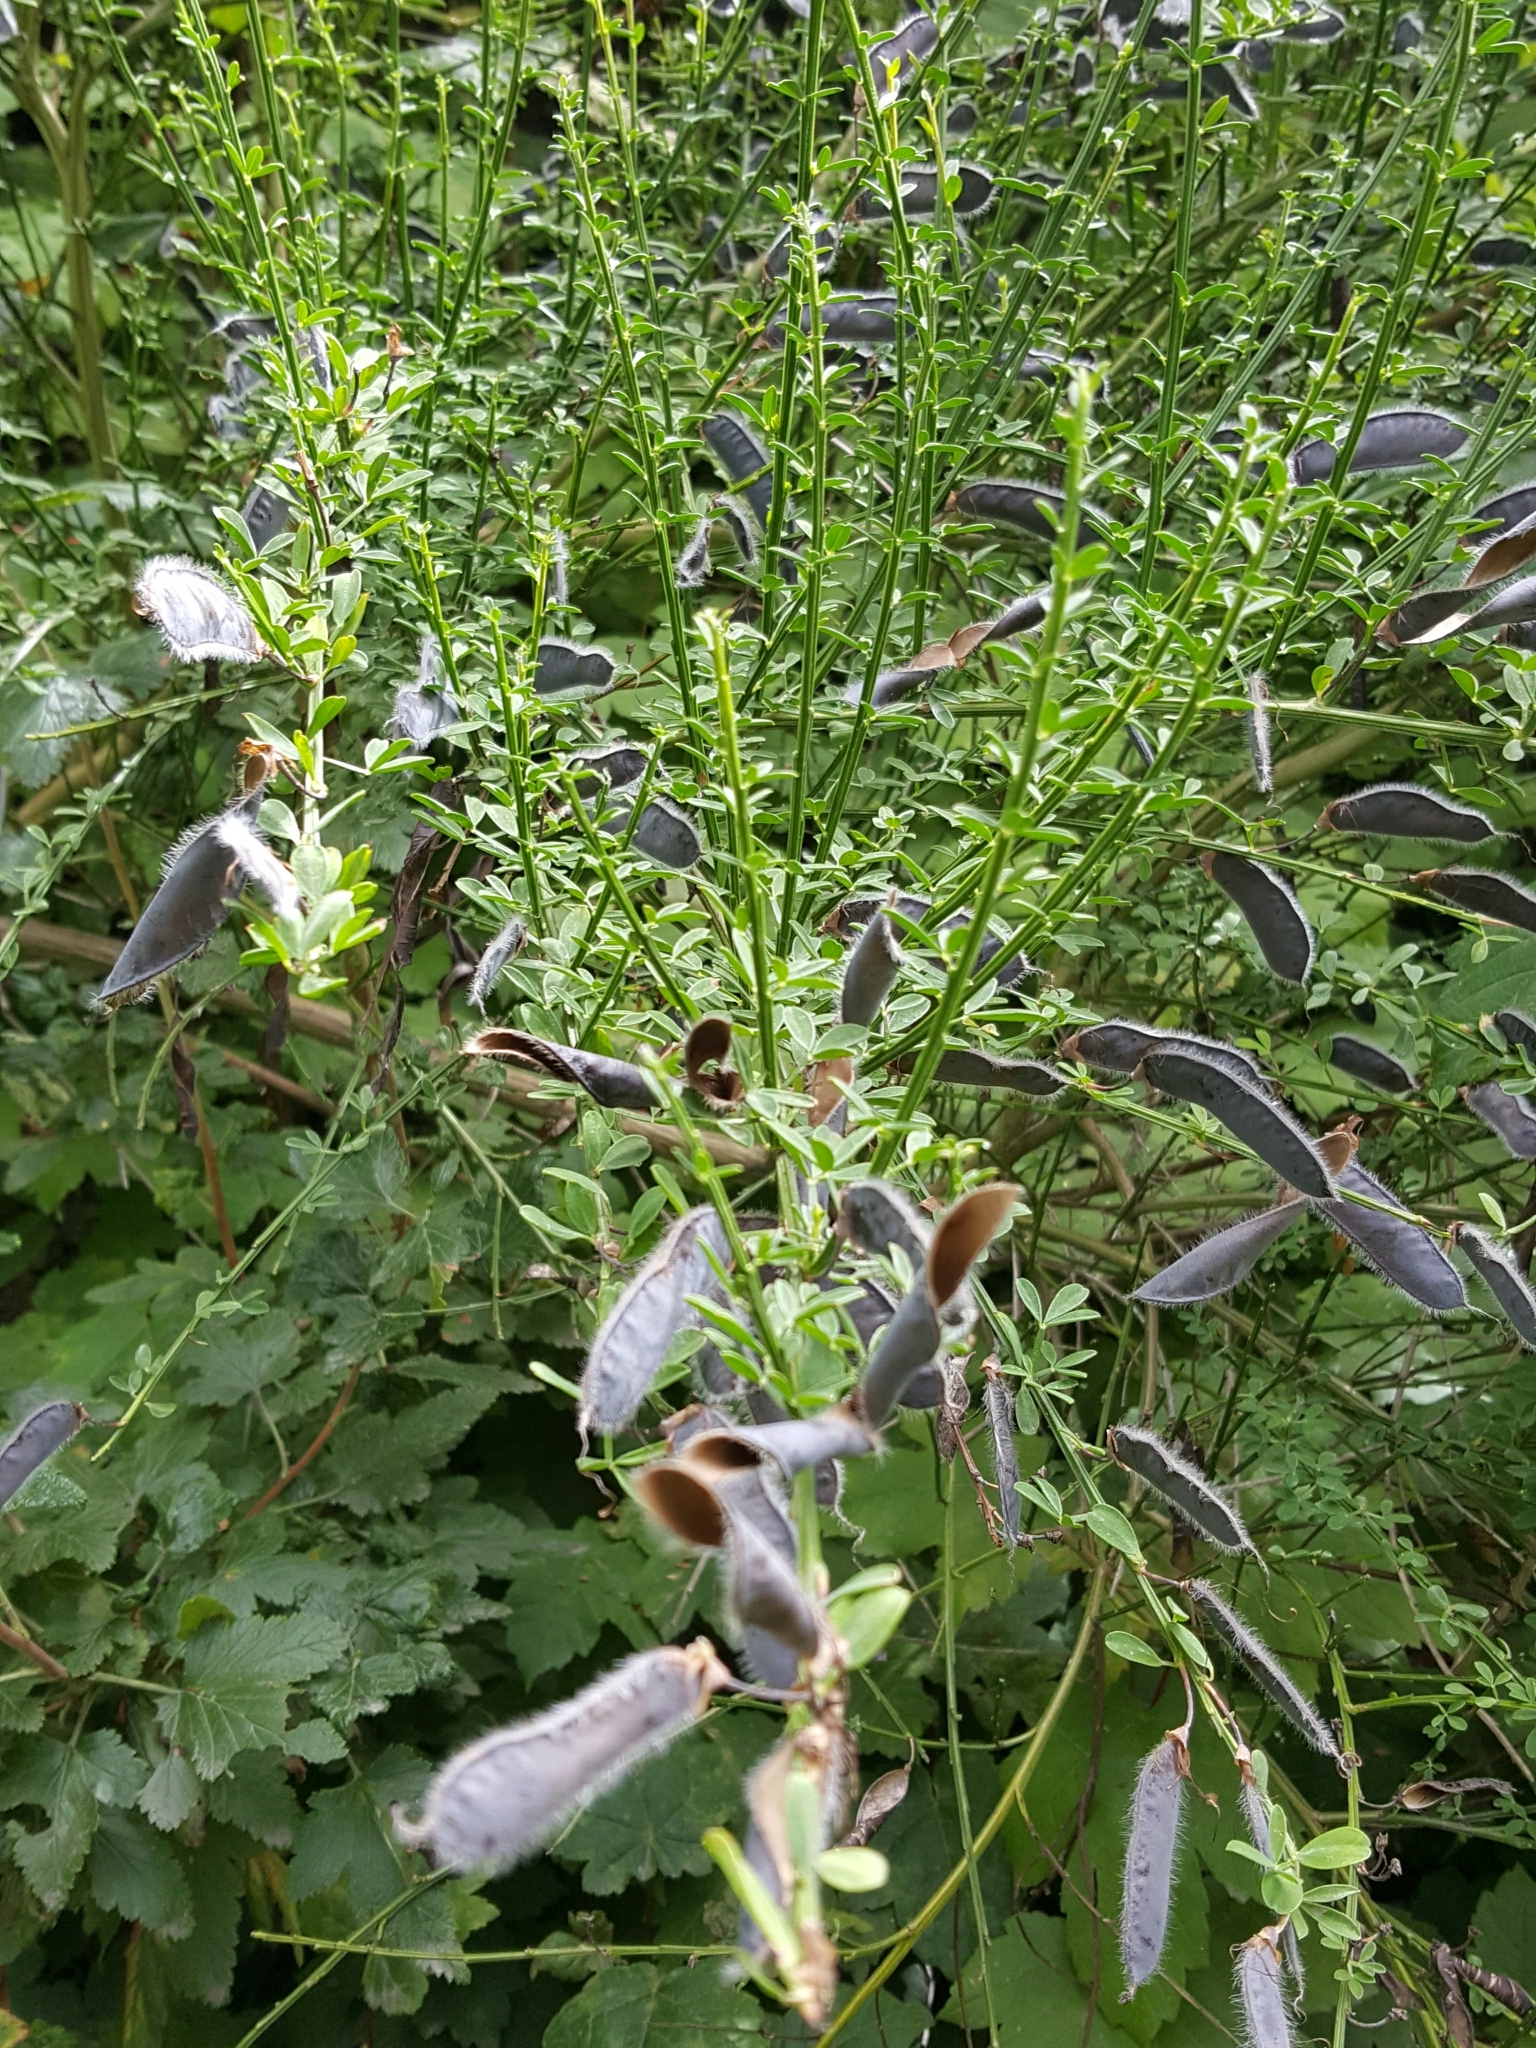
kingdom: Plantae
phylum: Tracheophyta
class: Magnoliopsida
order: Fabales
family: Fabaceae
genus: Cytisus
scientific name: Cytisus scoparius
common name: Scotch broom
